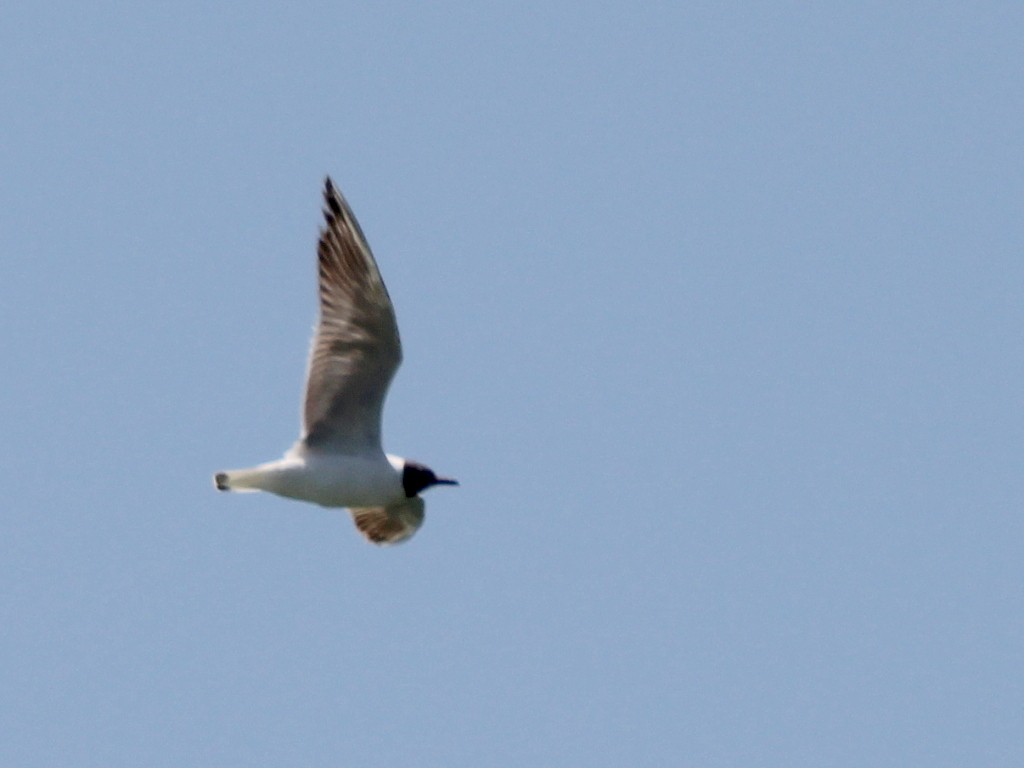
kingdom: Animalia
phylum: Chordata
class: Aves
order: Charadriiformes
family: Laridae
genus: Chroicocephalus
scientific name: Chroicocephalus ridibundus
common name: Black-headed gull
